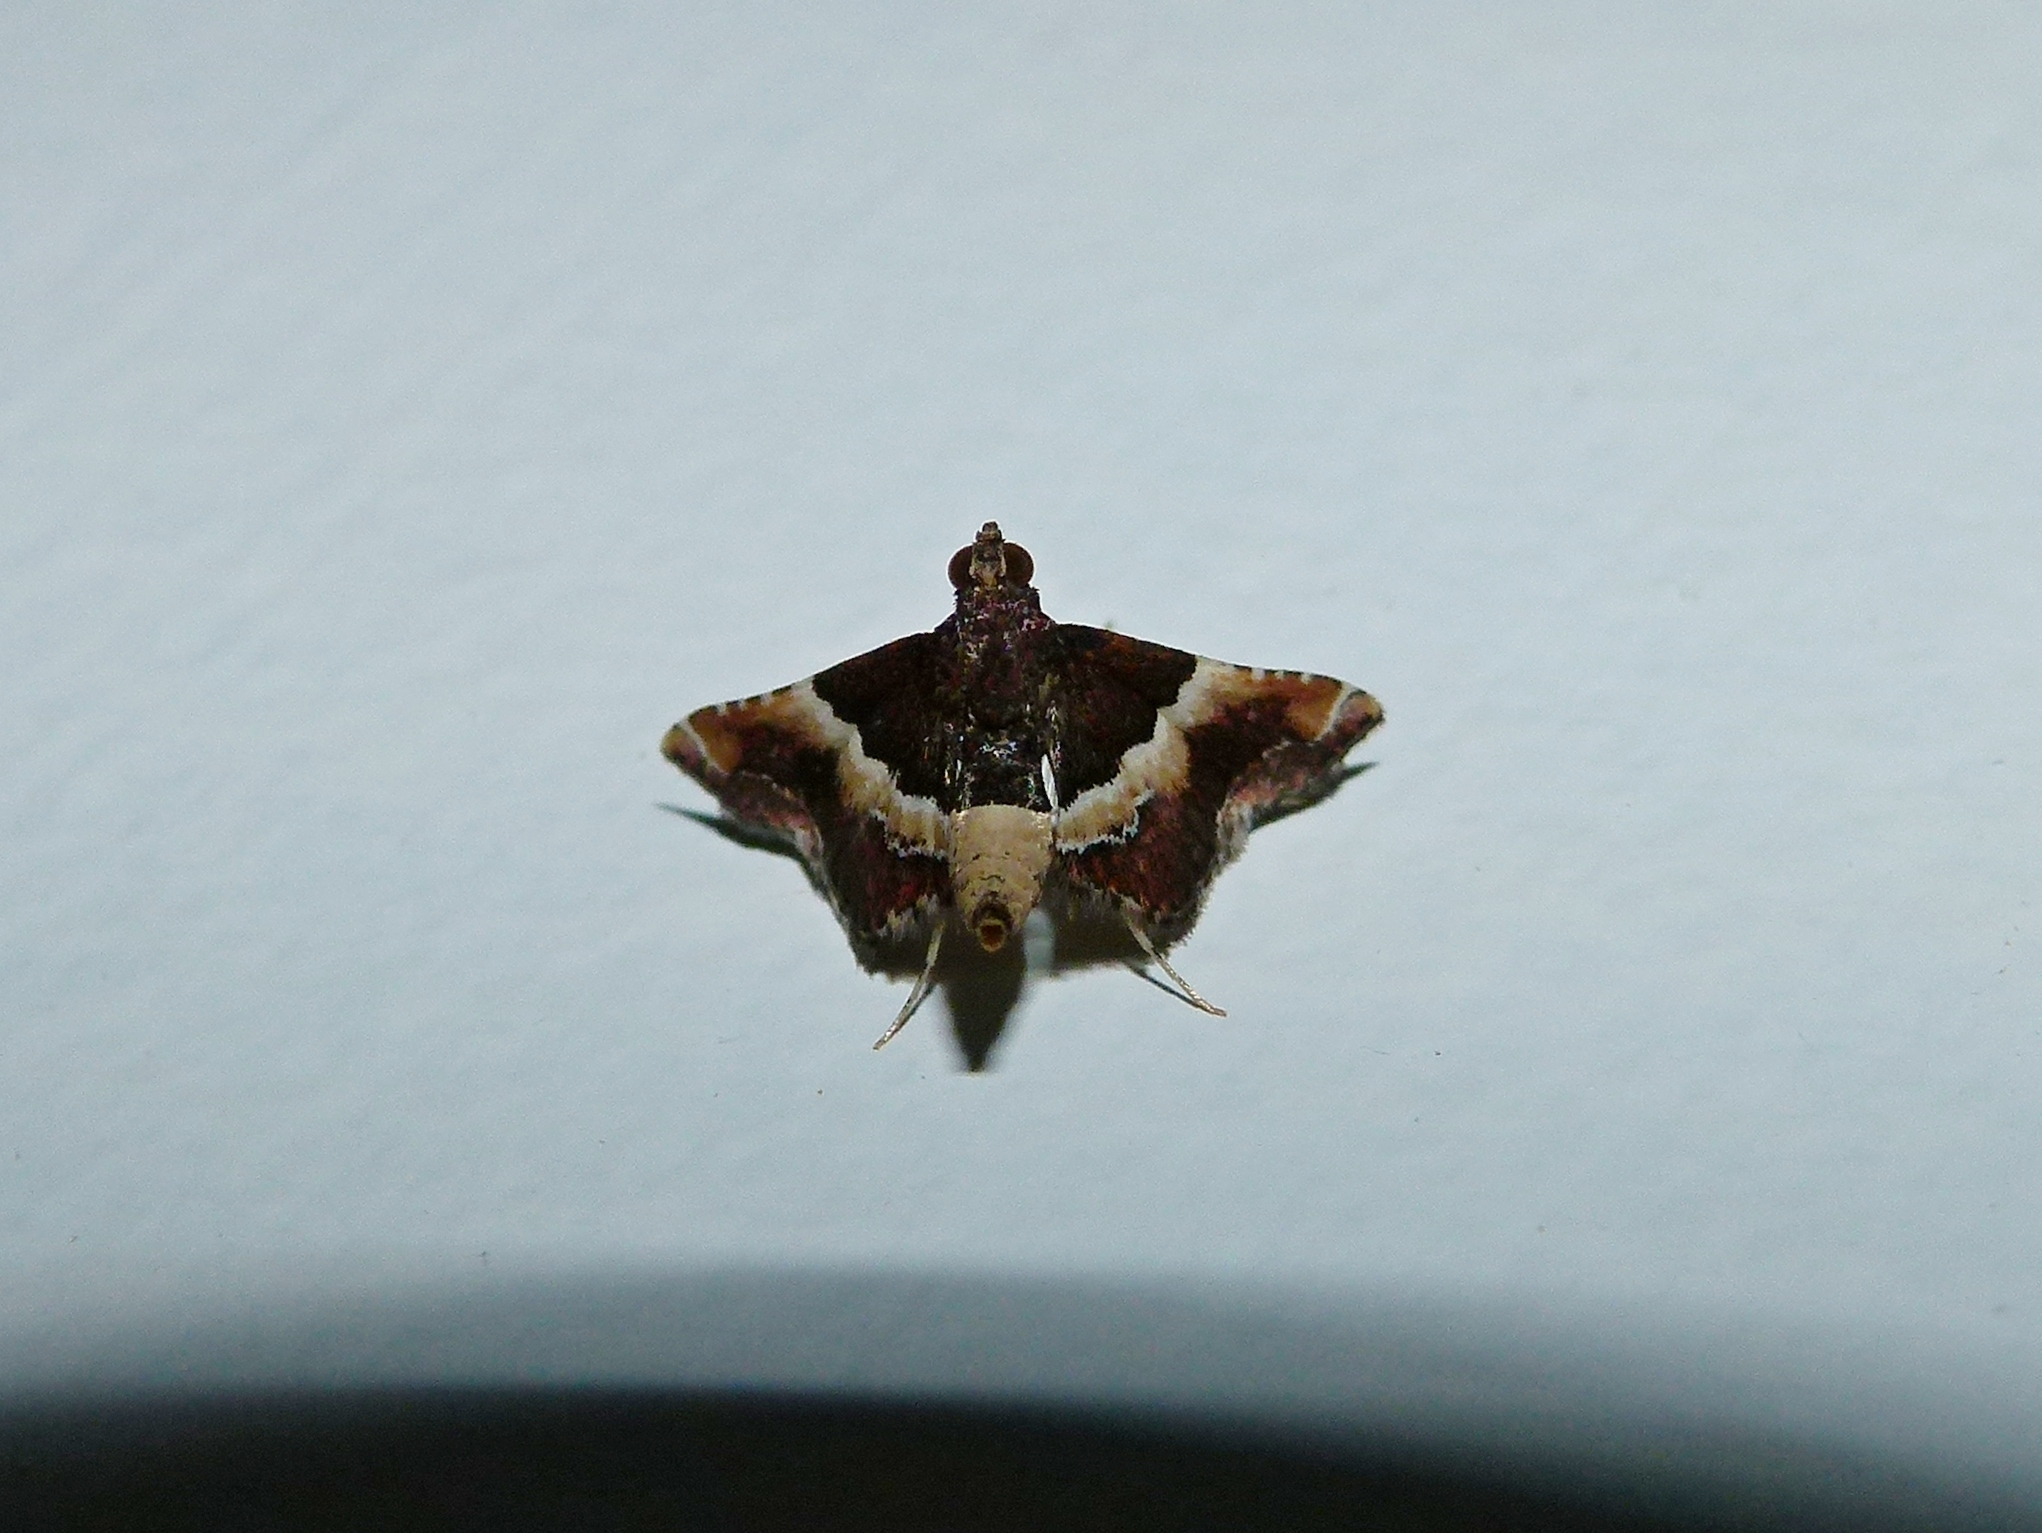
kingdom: Animalia
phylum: Arthropoda
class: Insecta
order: Lepidoptera
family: Pyralidae
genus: Persicoptera
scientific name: Persicoptera desmotoma
